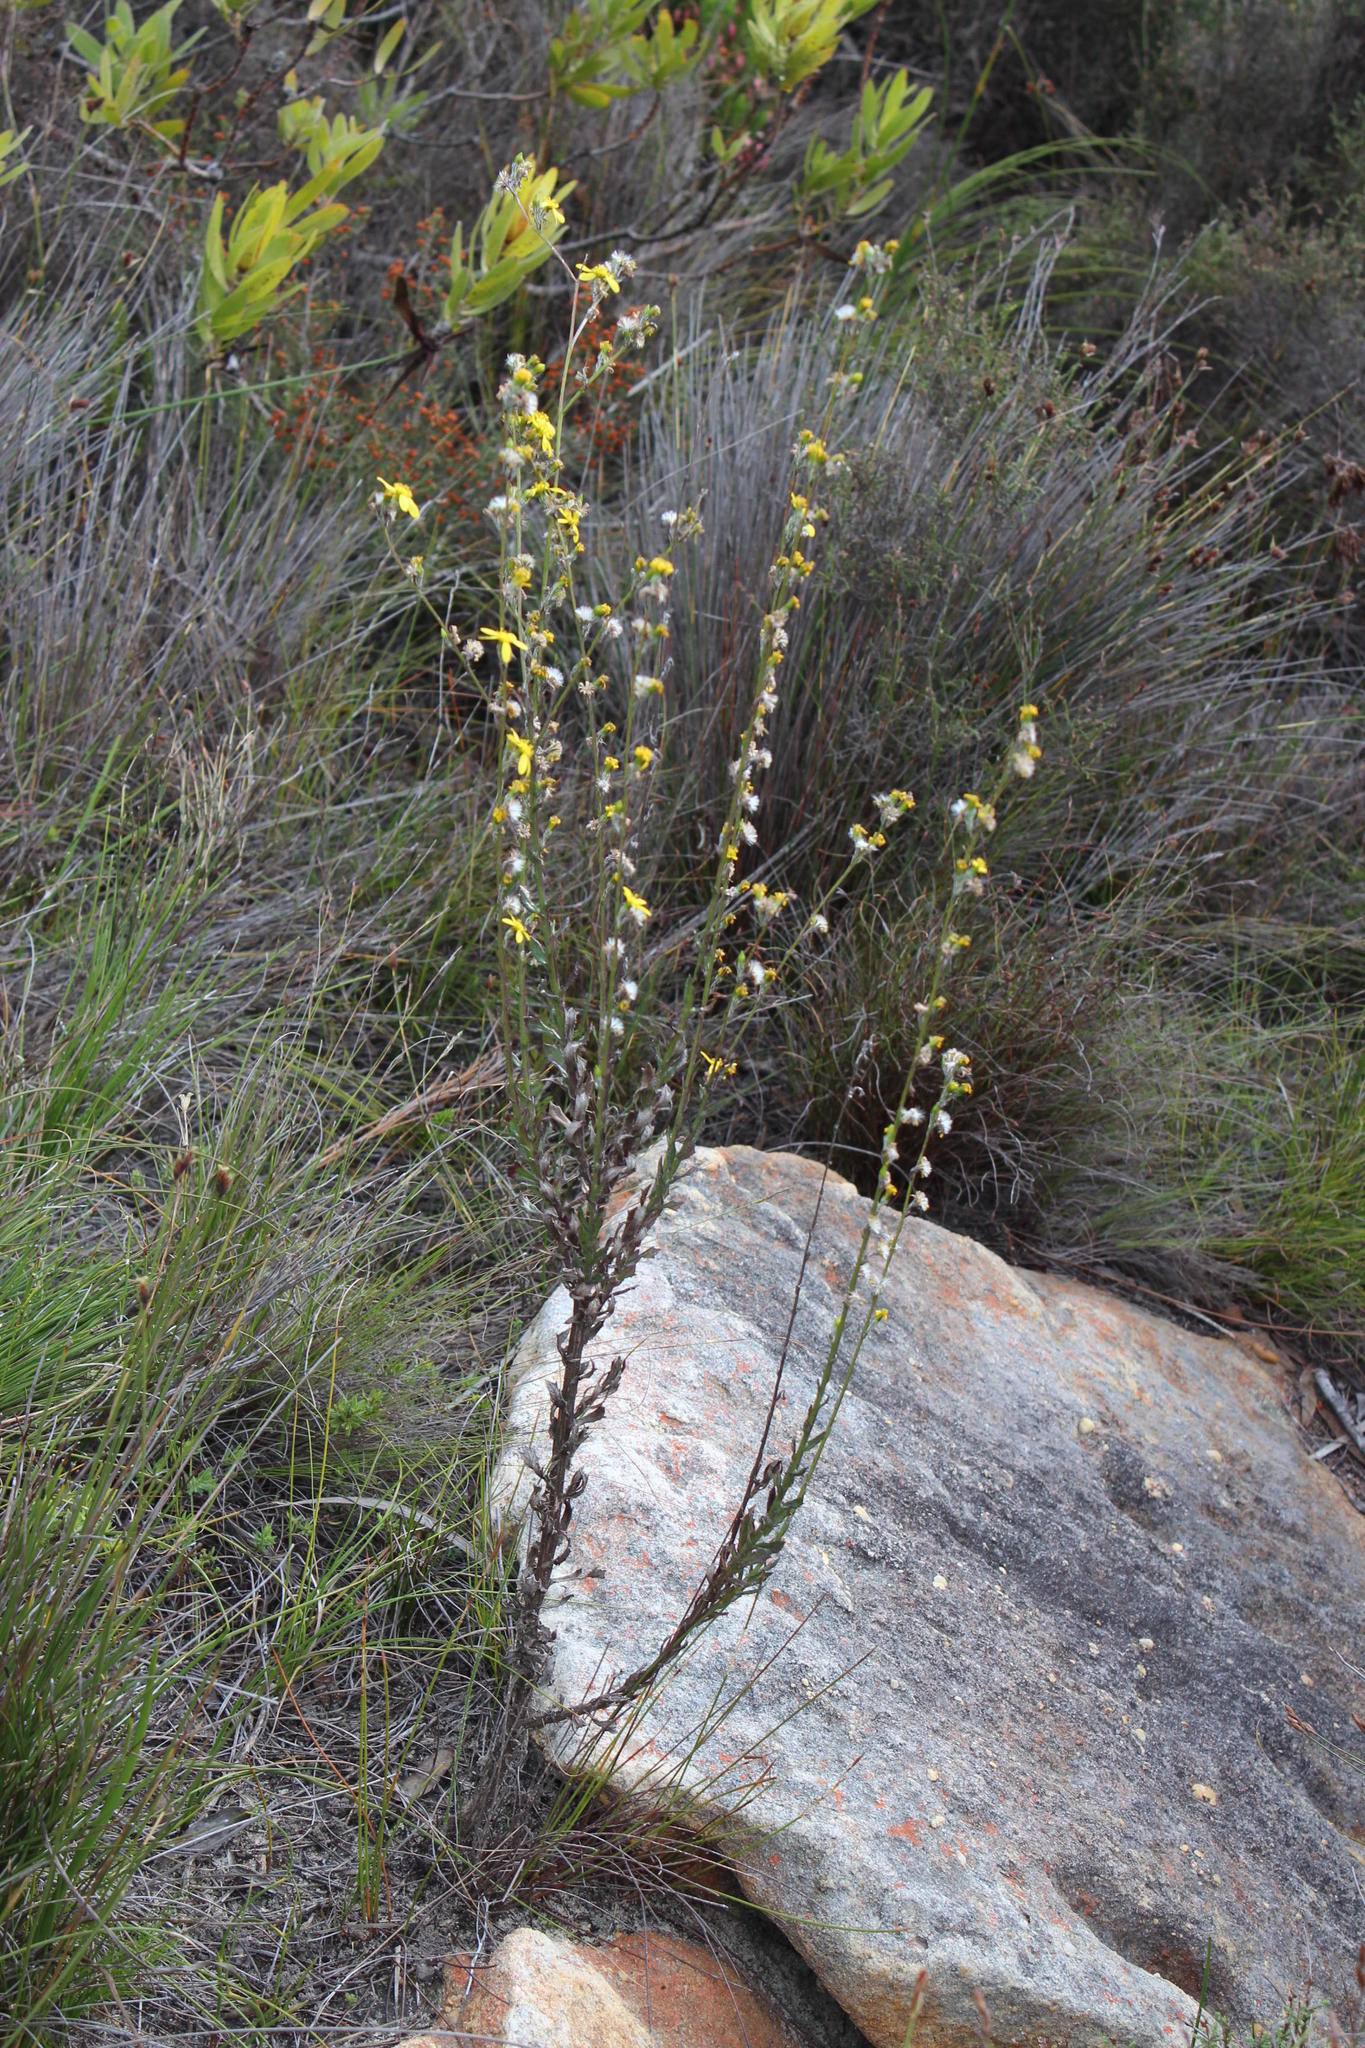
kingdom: Plantae
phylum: Tracheophyta
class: Magnoliopsida
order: Asterales
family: Asteraceae
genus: Senecio
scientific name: Senecio pubigerus
